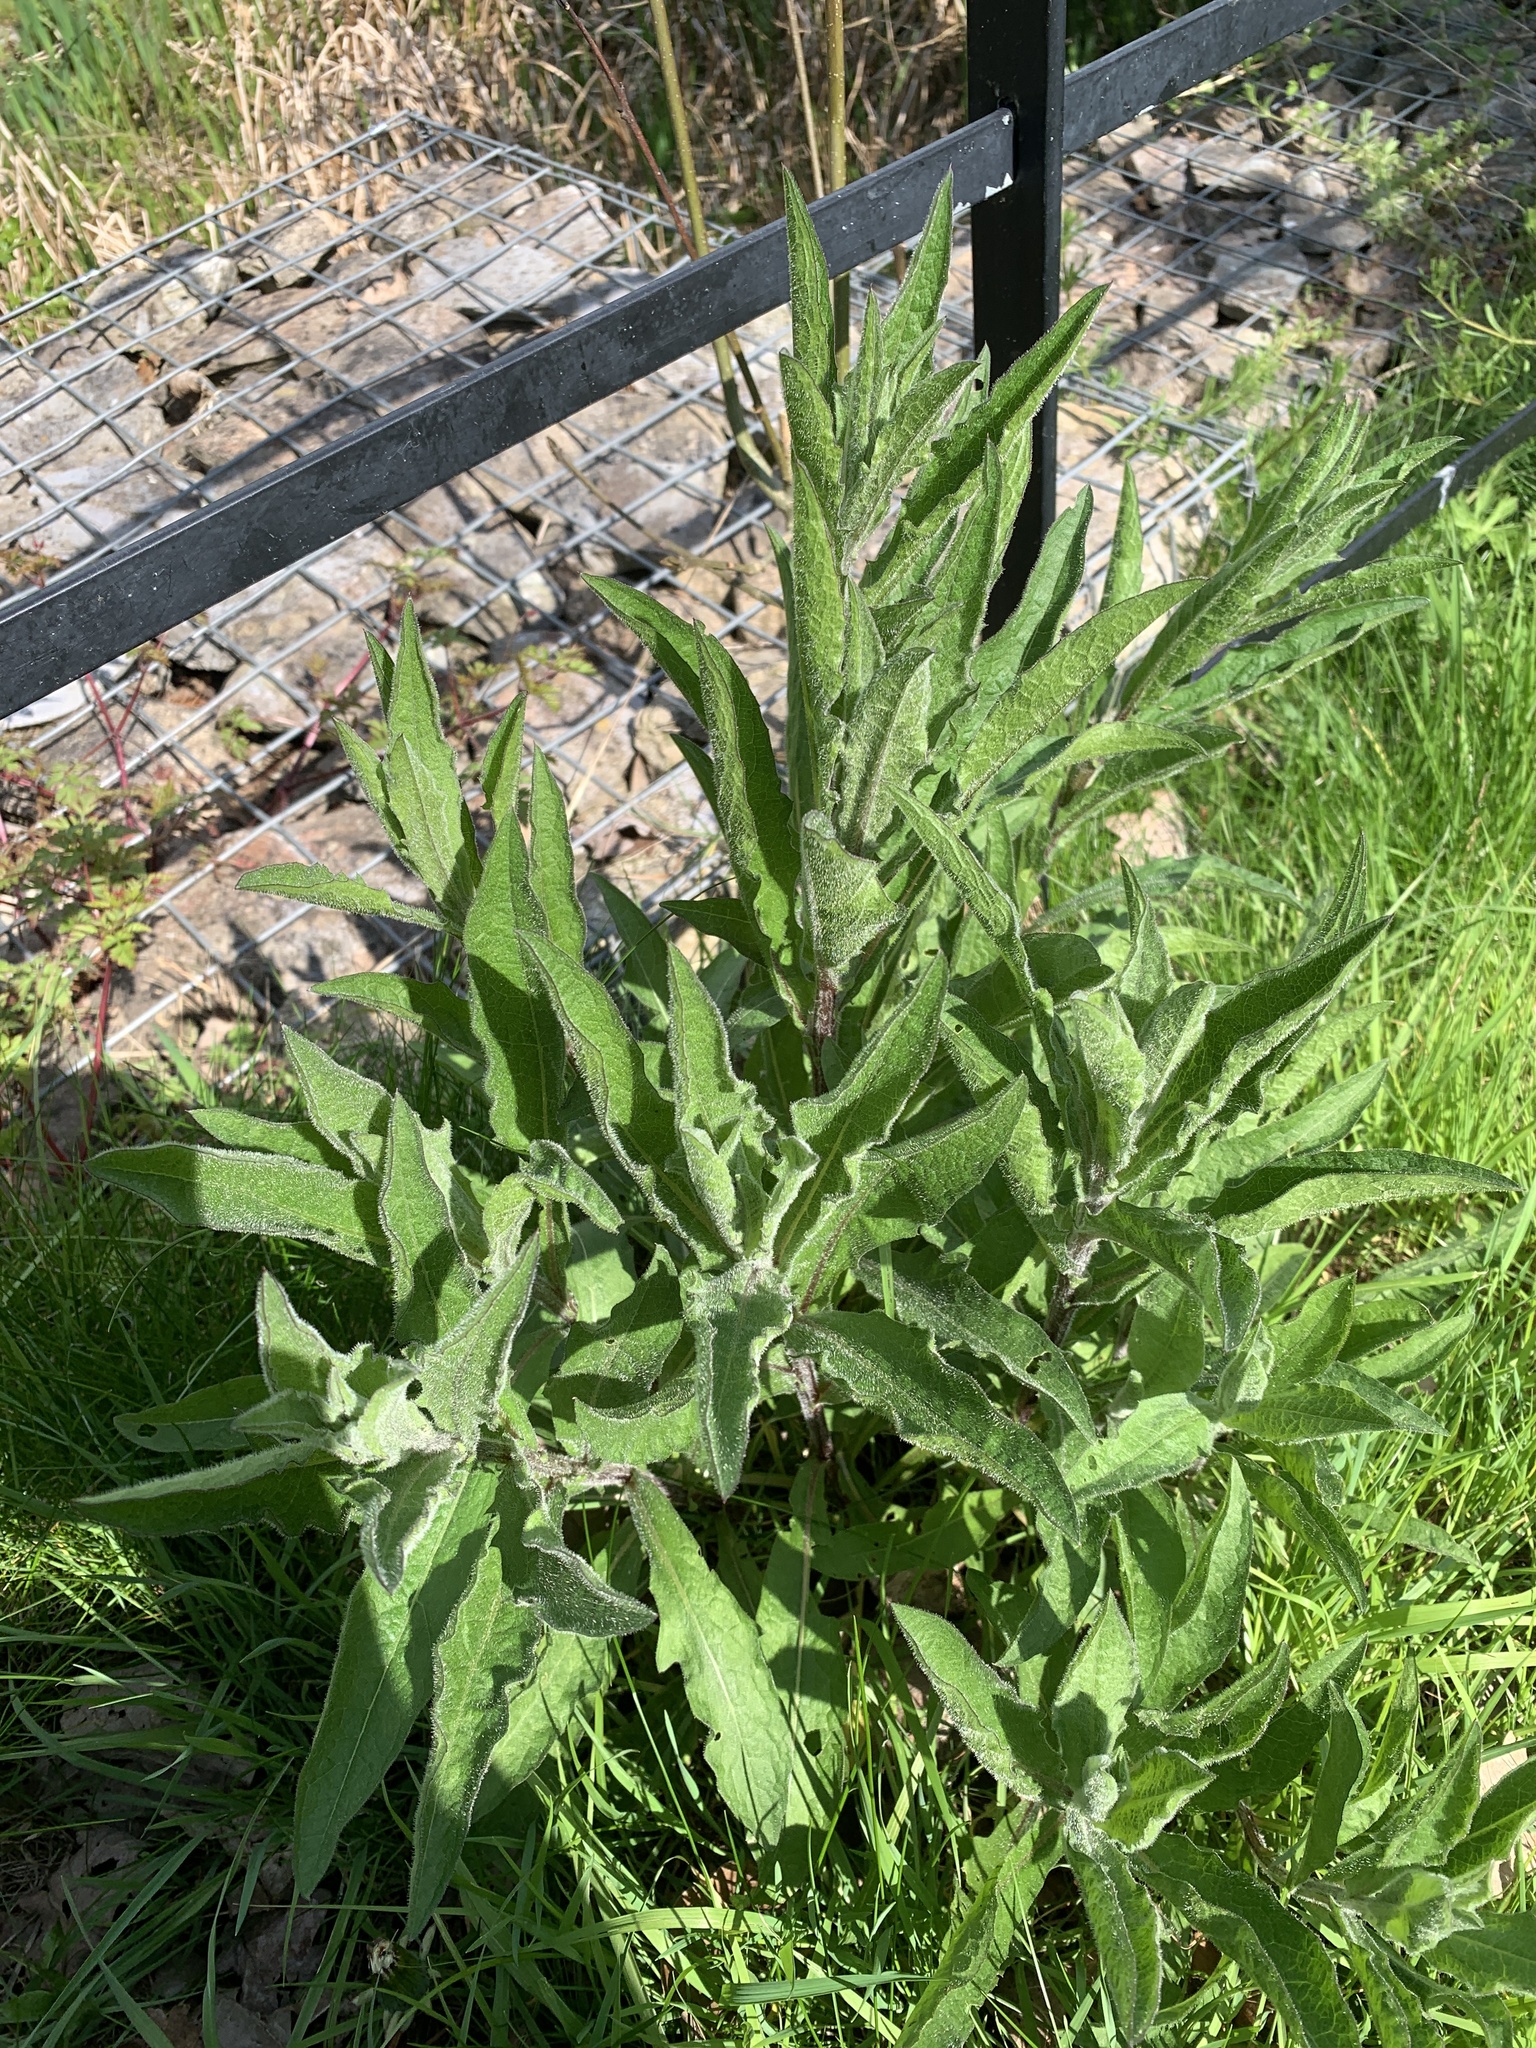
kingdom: Plantae
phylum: Tracheophyta
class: Magnoliopsida
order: Asterales
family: Asteraceae
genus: Centaurea
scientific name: Centaurea nigra
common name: Lesser knapweed
